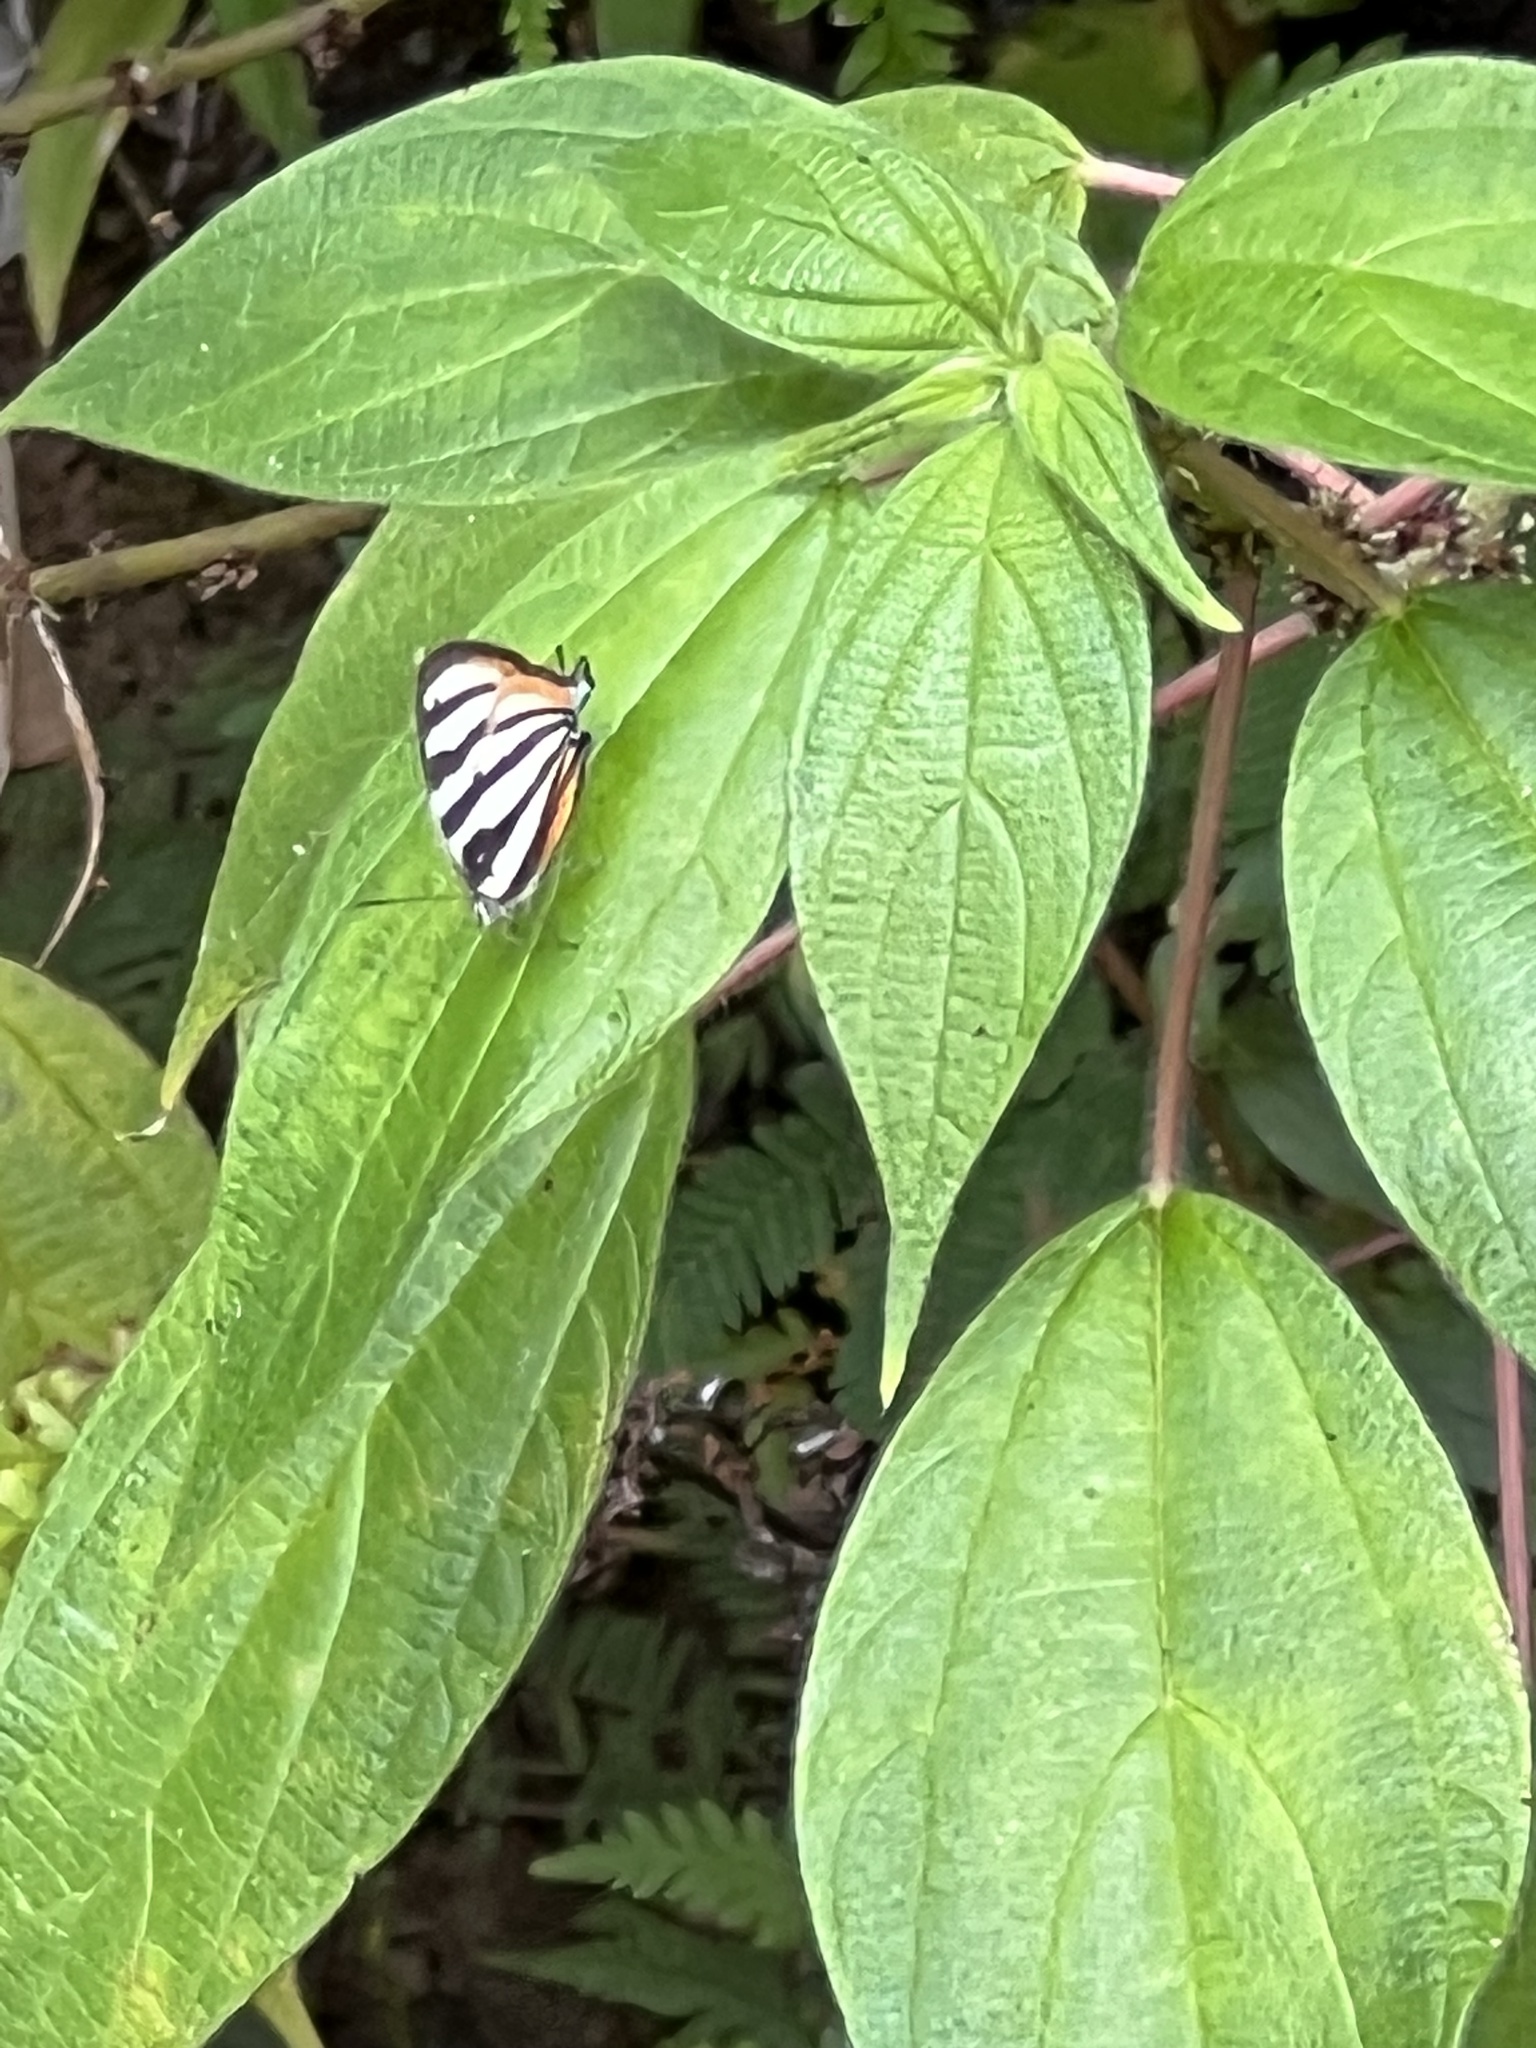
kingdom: Animalia
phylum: Arthropoda
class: Insecta
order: Lepidoptera
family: Lycaenidae
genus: Arawacus
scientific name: Arawacus togarna
